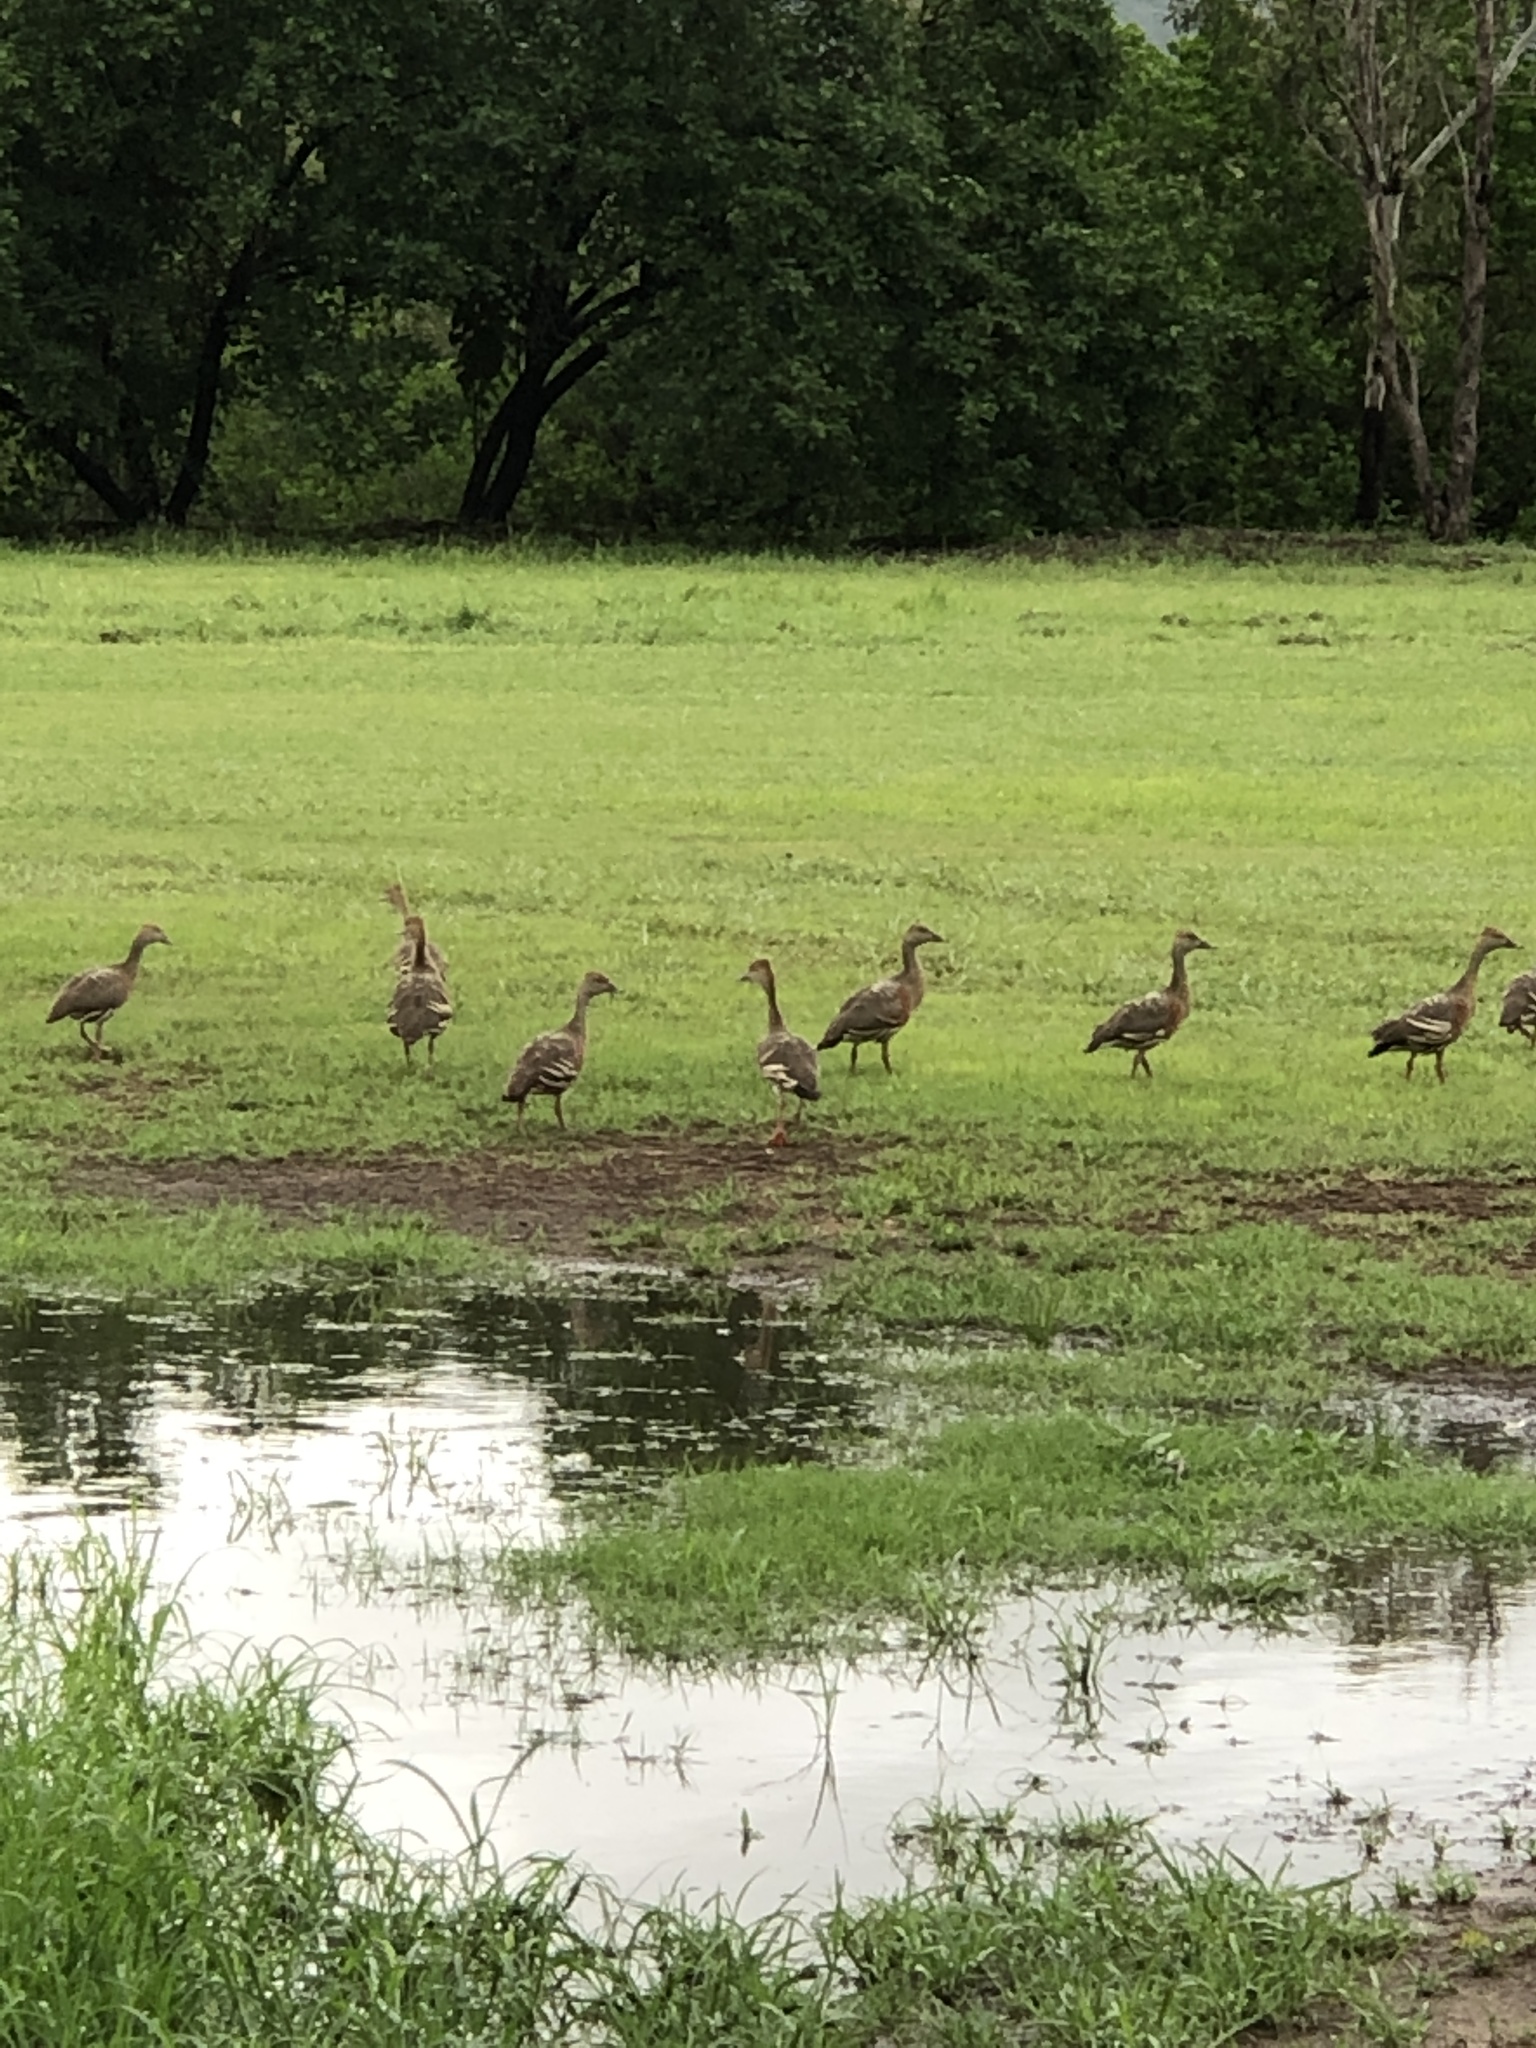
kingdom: Animalia
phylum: Chordata
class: Aves
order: Anseriformes
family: Anatidae
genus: Dendrocygna
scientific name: Dendrocygna eytoni
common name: Plumed whistling-duck
